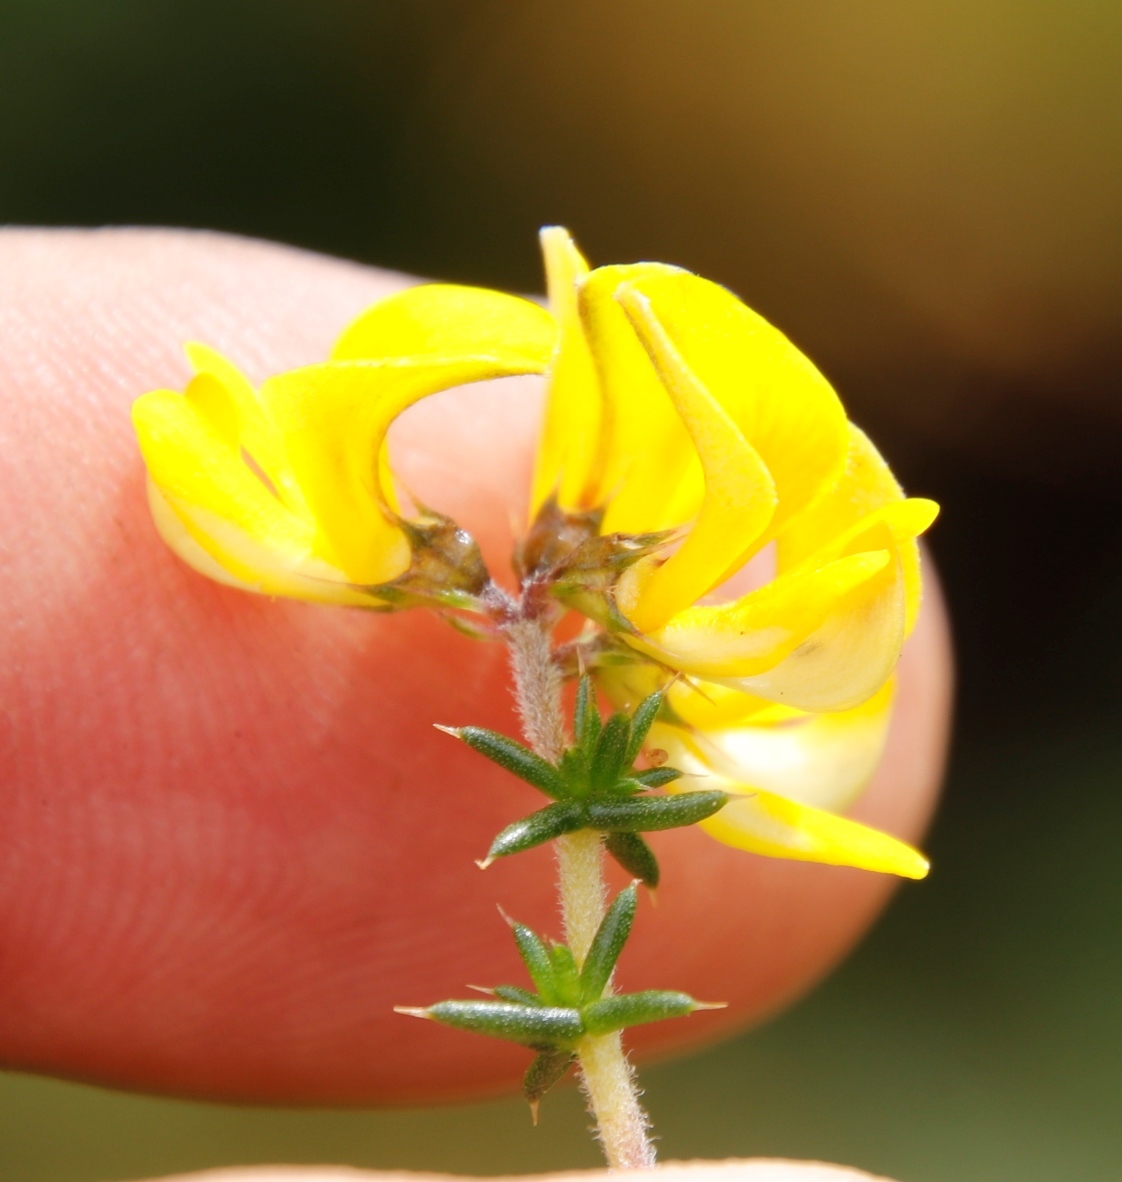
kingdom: Plantae
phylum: Tracheophyta
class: Magnoliopsida
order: Fabales
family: Fabaceae
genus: Aspalathus
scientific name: Aspalathus astroites
